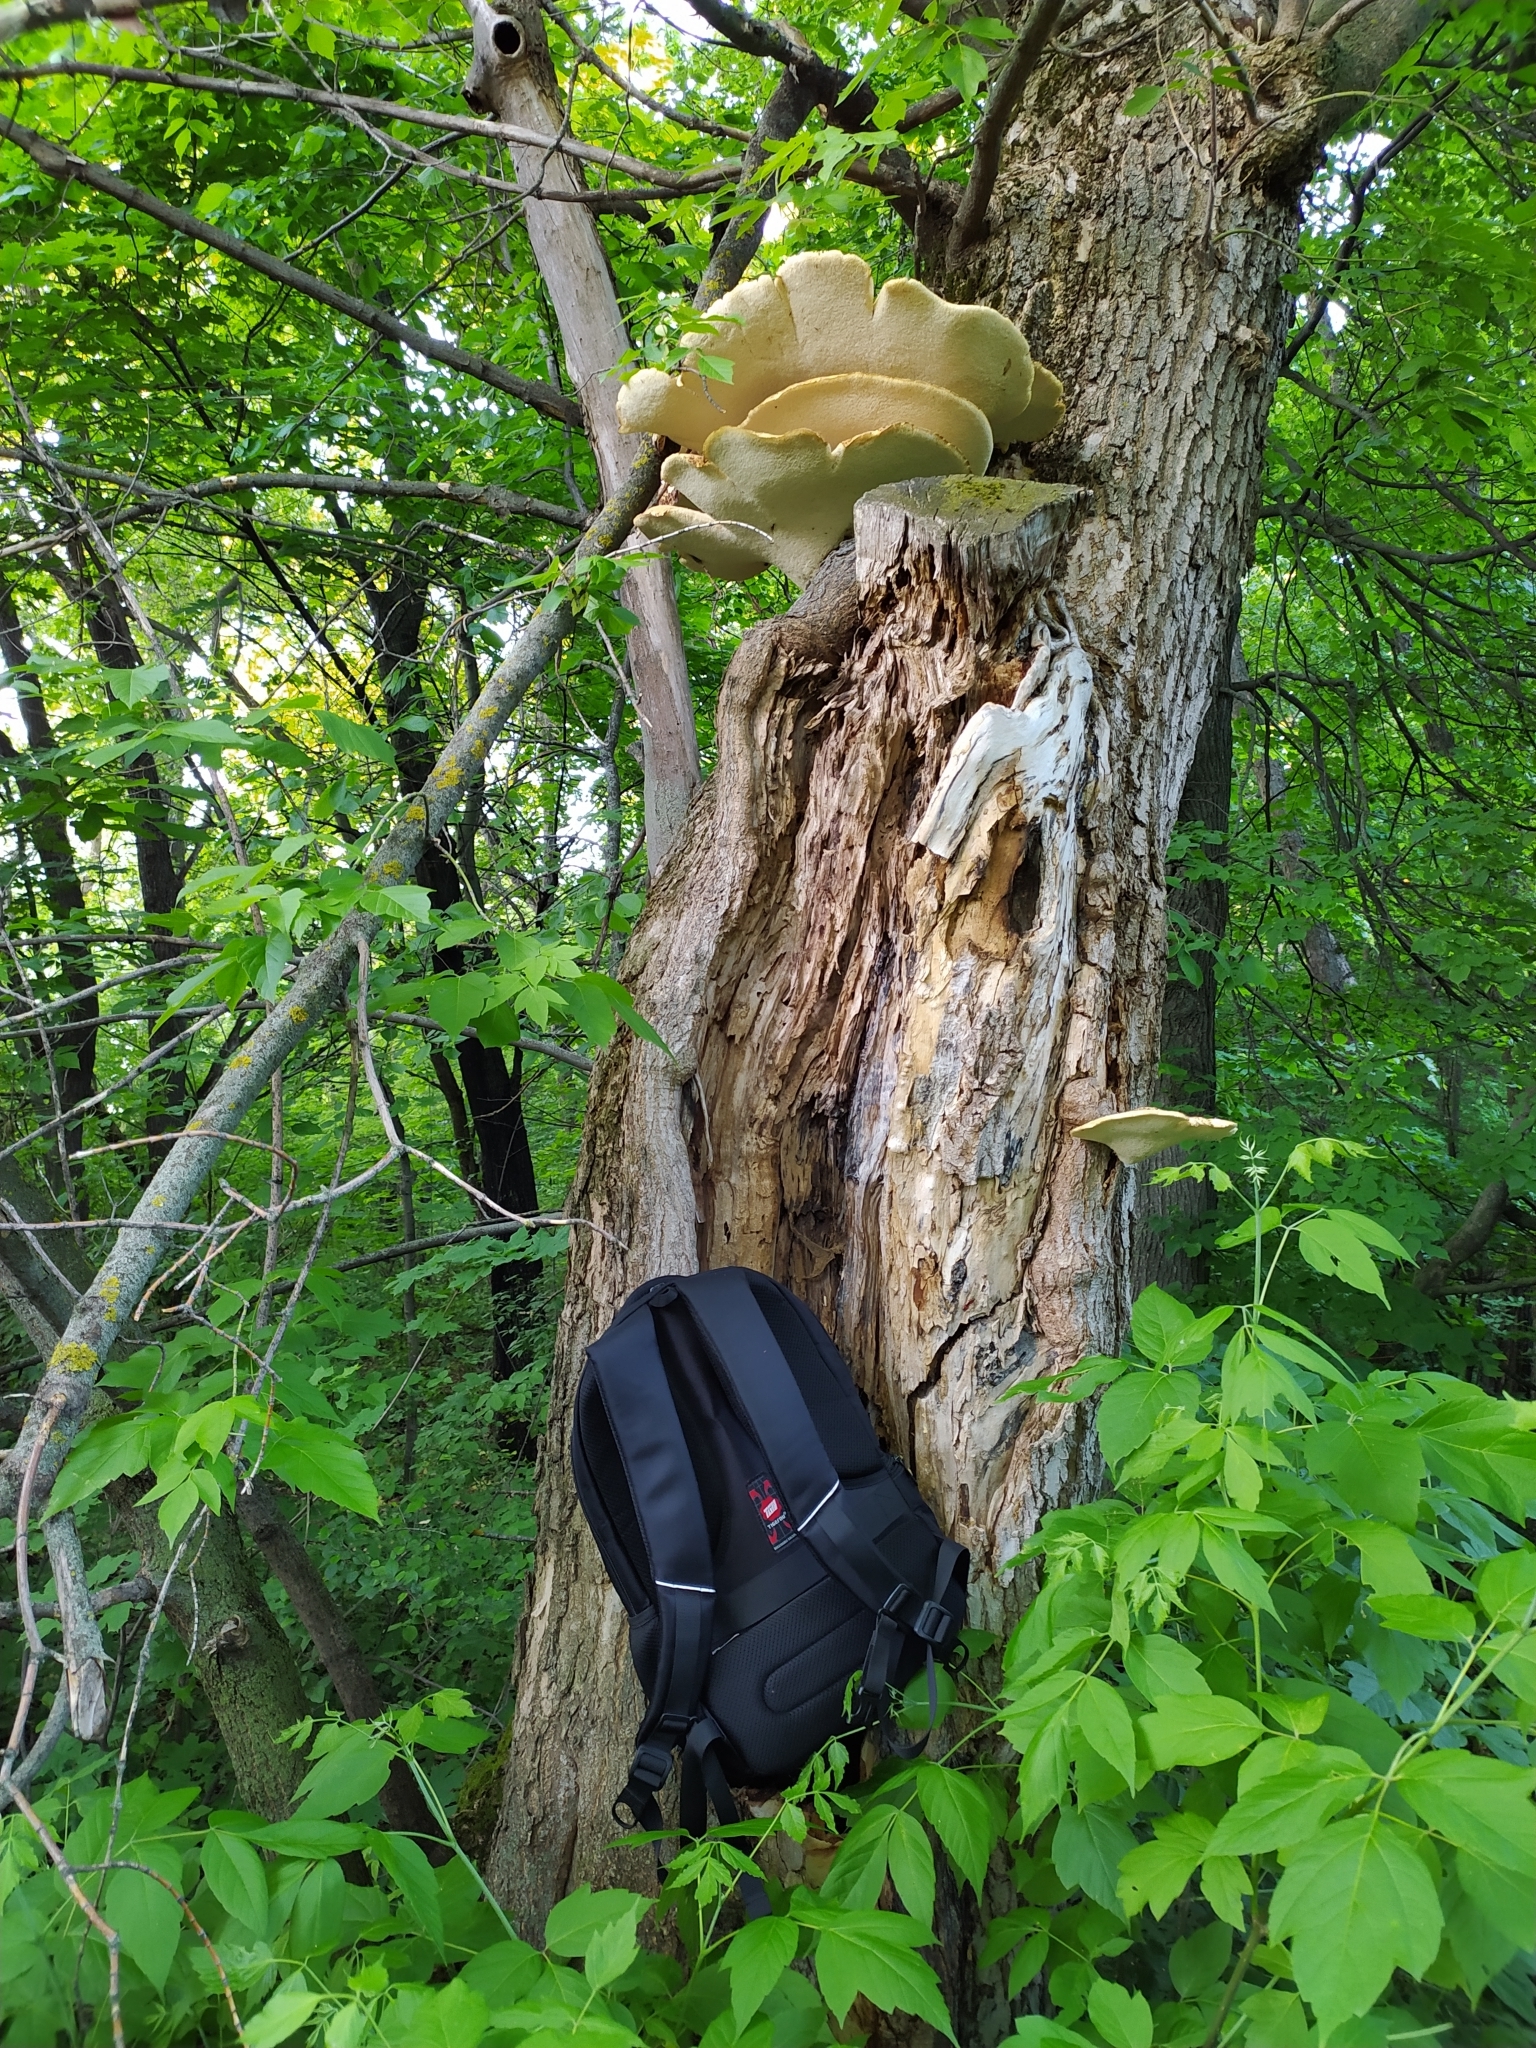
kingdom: Fungi
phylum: Basidiomycota
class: Agaricomycetes
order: Polyporales
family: Polyporaceae
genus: Cerioporus
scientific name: Cerioporus squamosus
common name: Dryad's saddle
